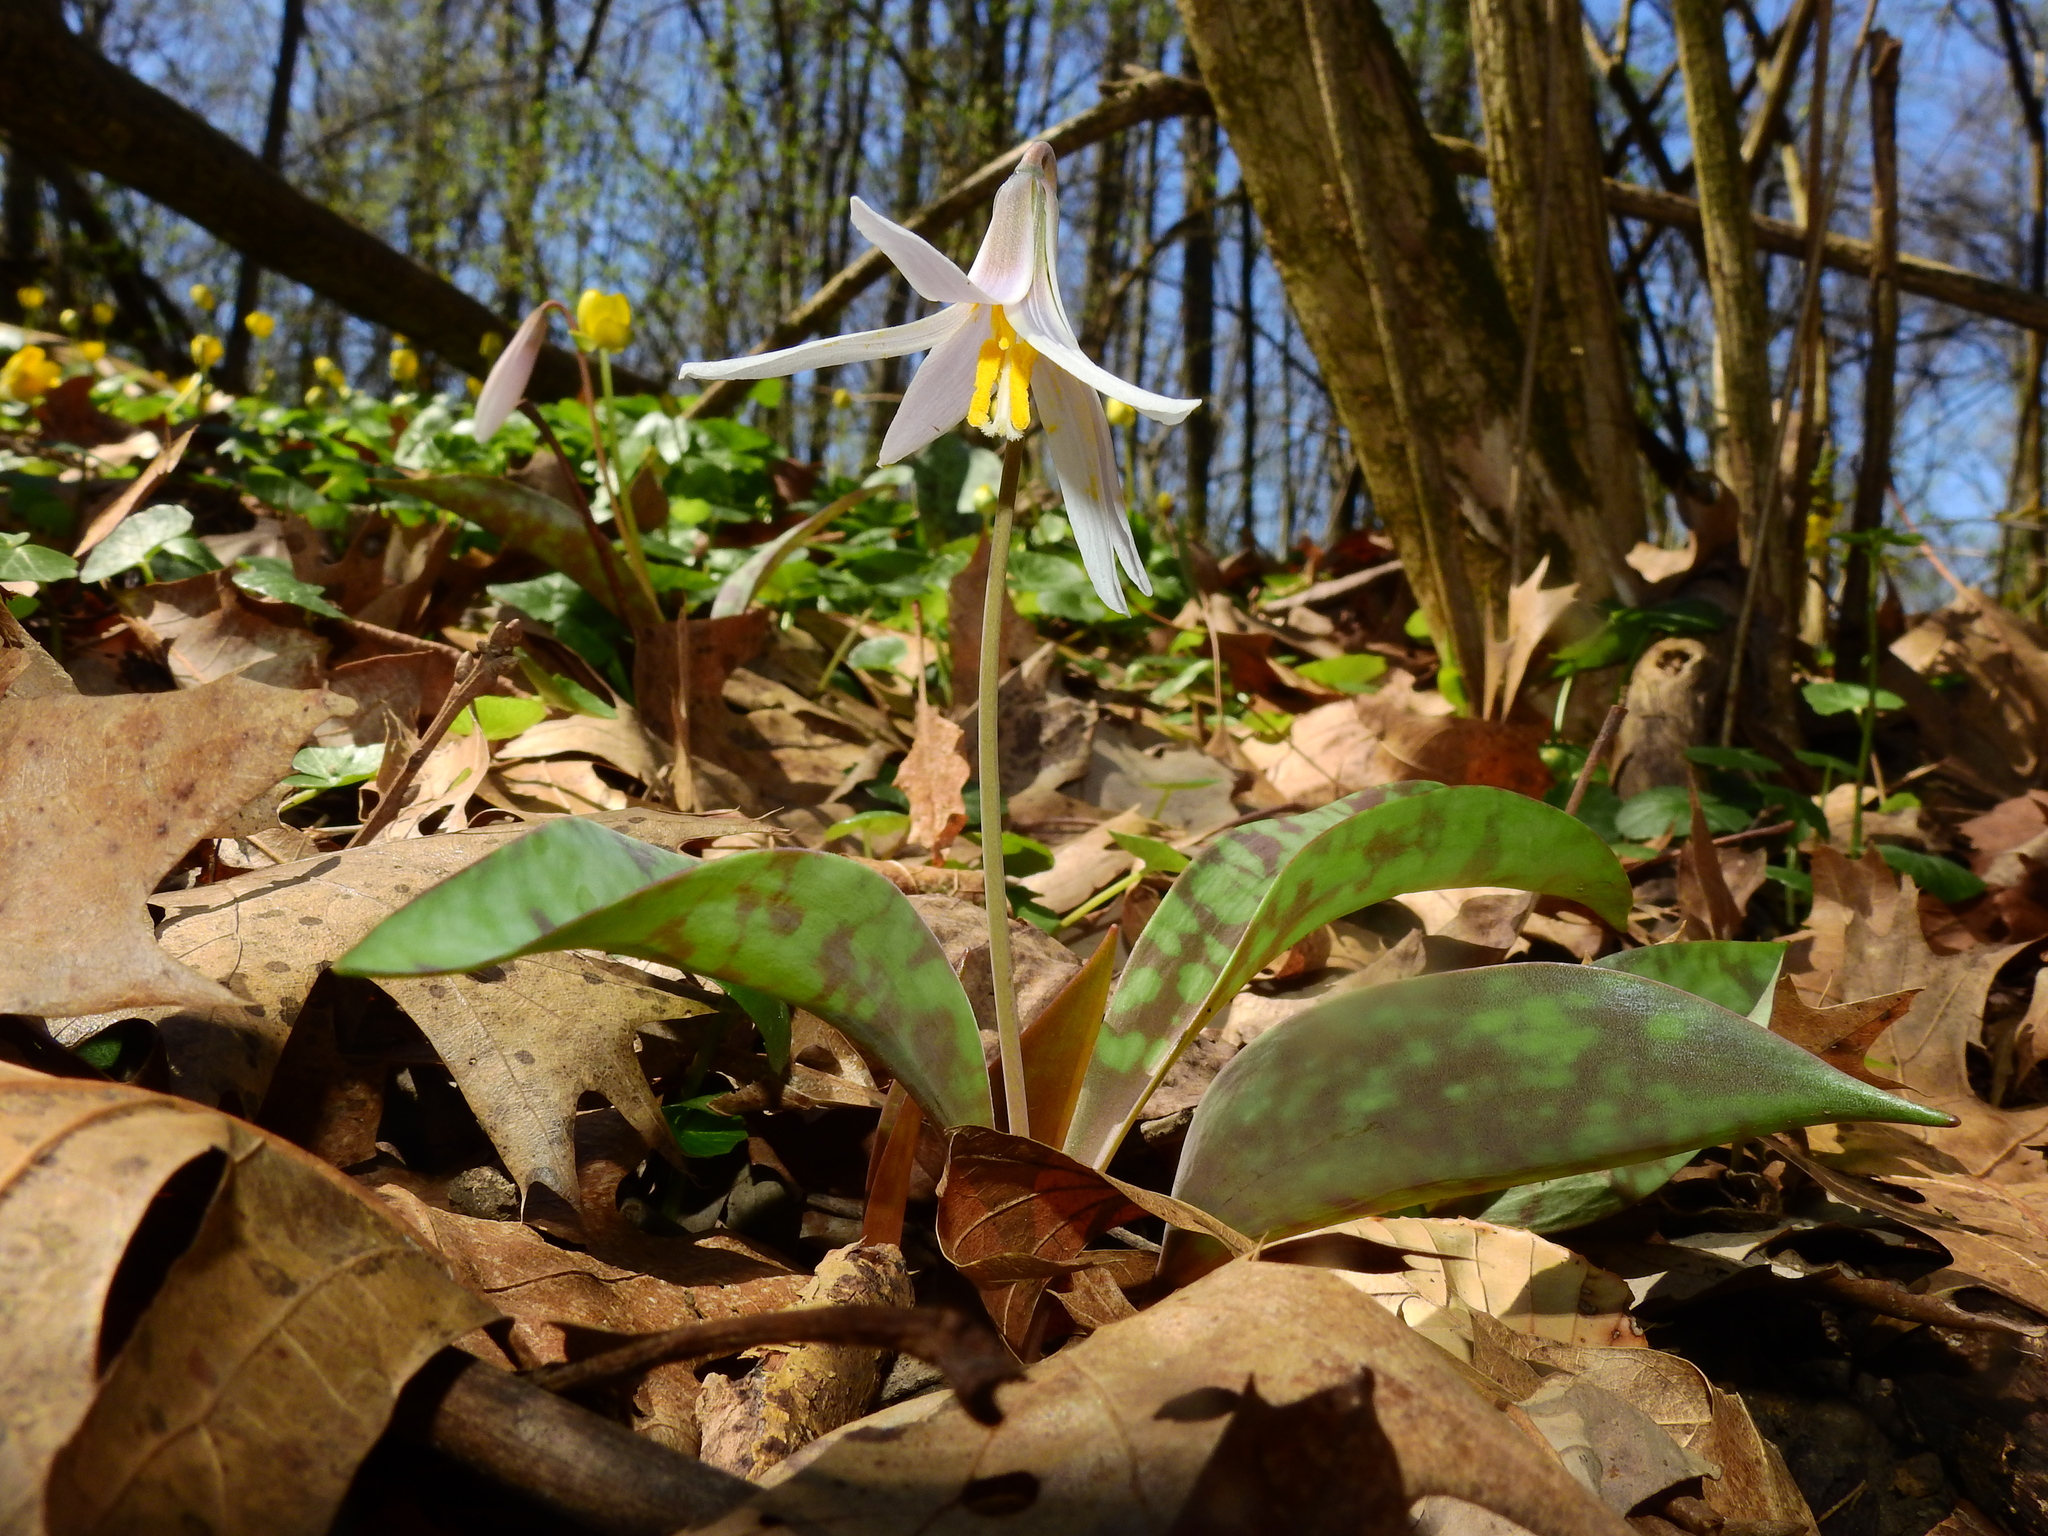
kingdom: Plantae
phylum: Tracheophyta
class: Liliopsida
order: Liliales
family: Liliaceae
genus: Erythronium
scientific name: Erythronium albidum
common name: White trout-lily
